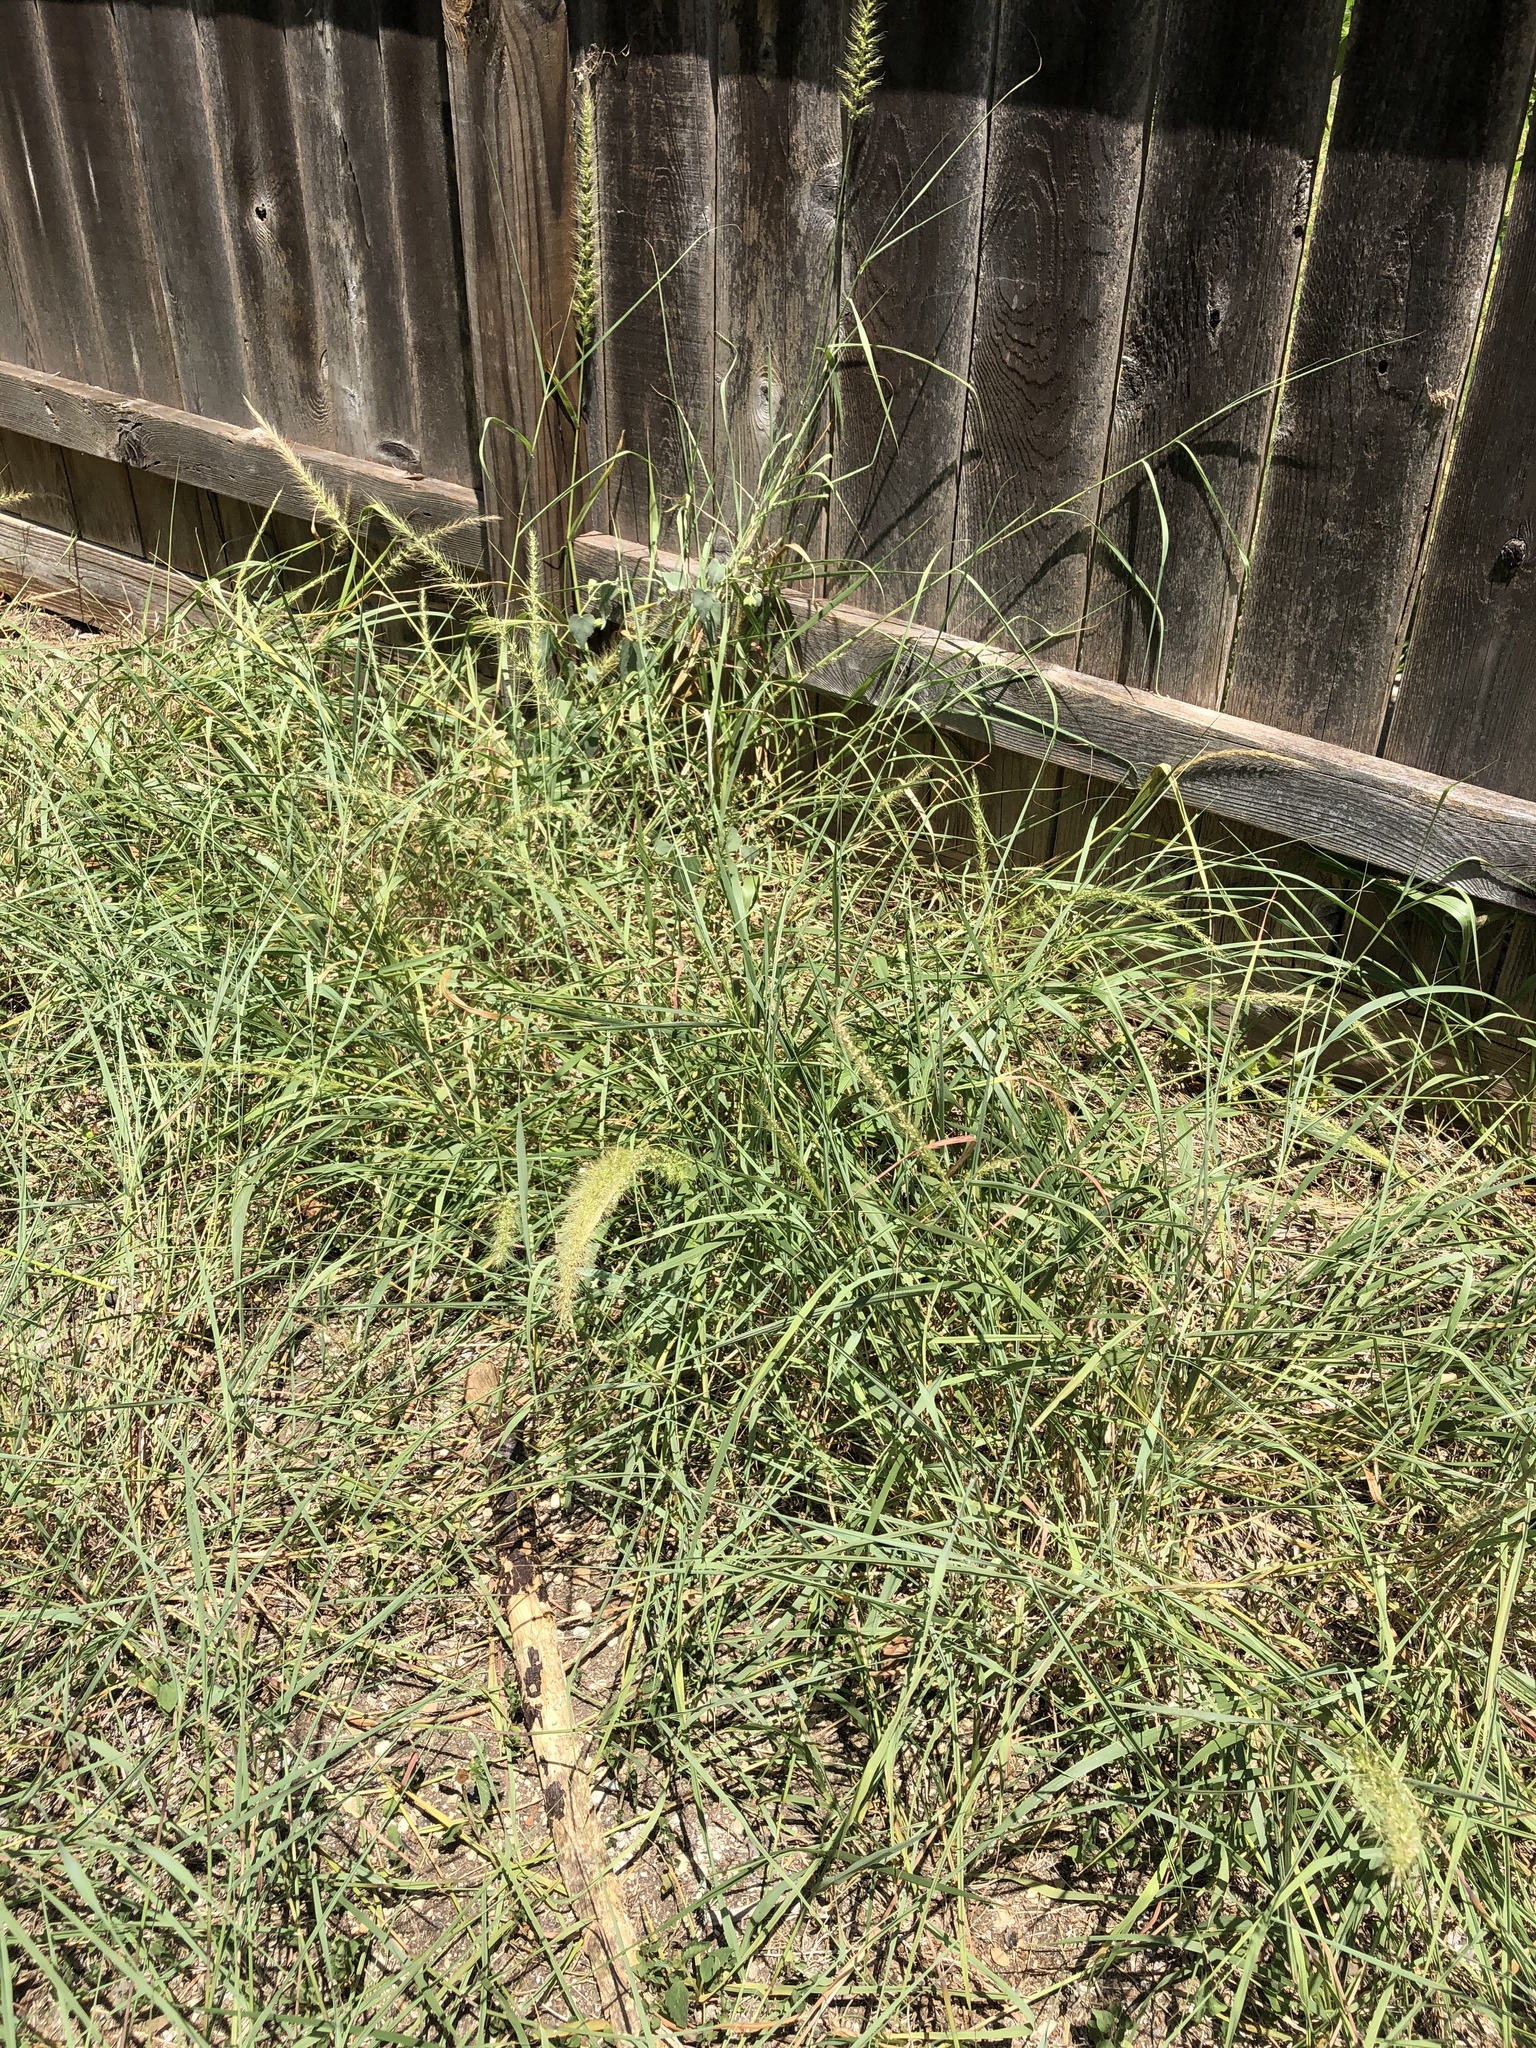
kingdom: Plantae
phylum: Tracheophyta
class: Liliopsida
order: Poales
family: Poaceae
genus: Setaria
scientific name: Setaria scheelei
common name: Southwestern bristle grass
